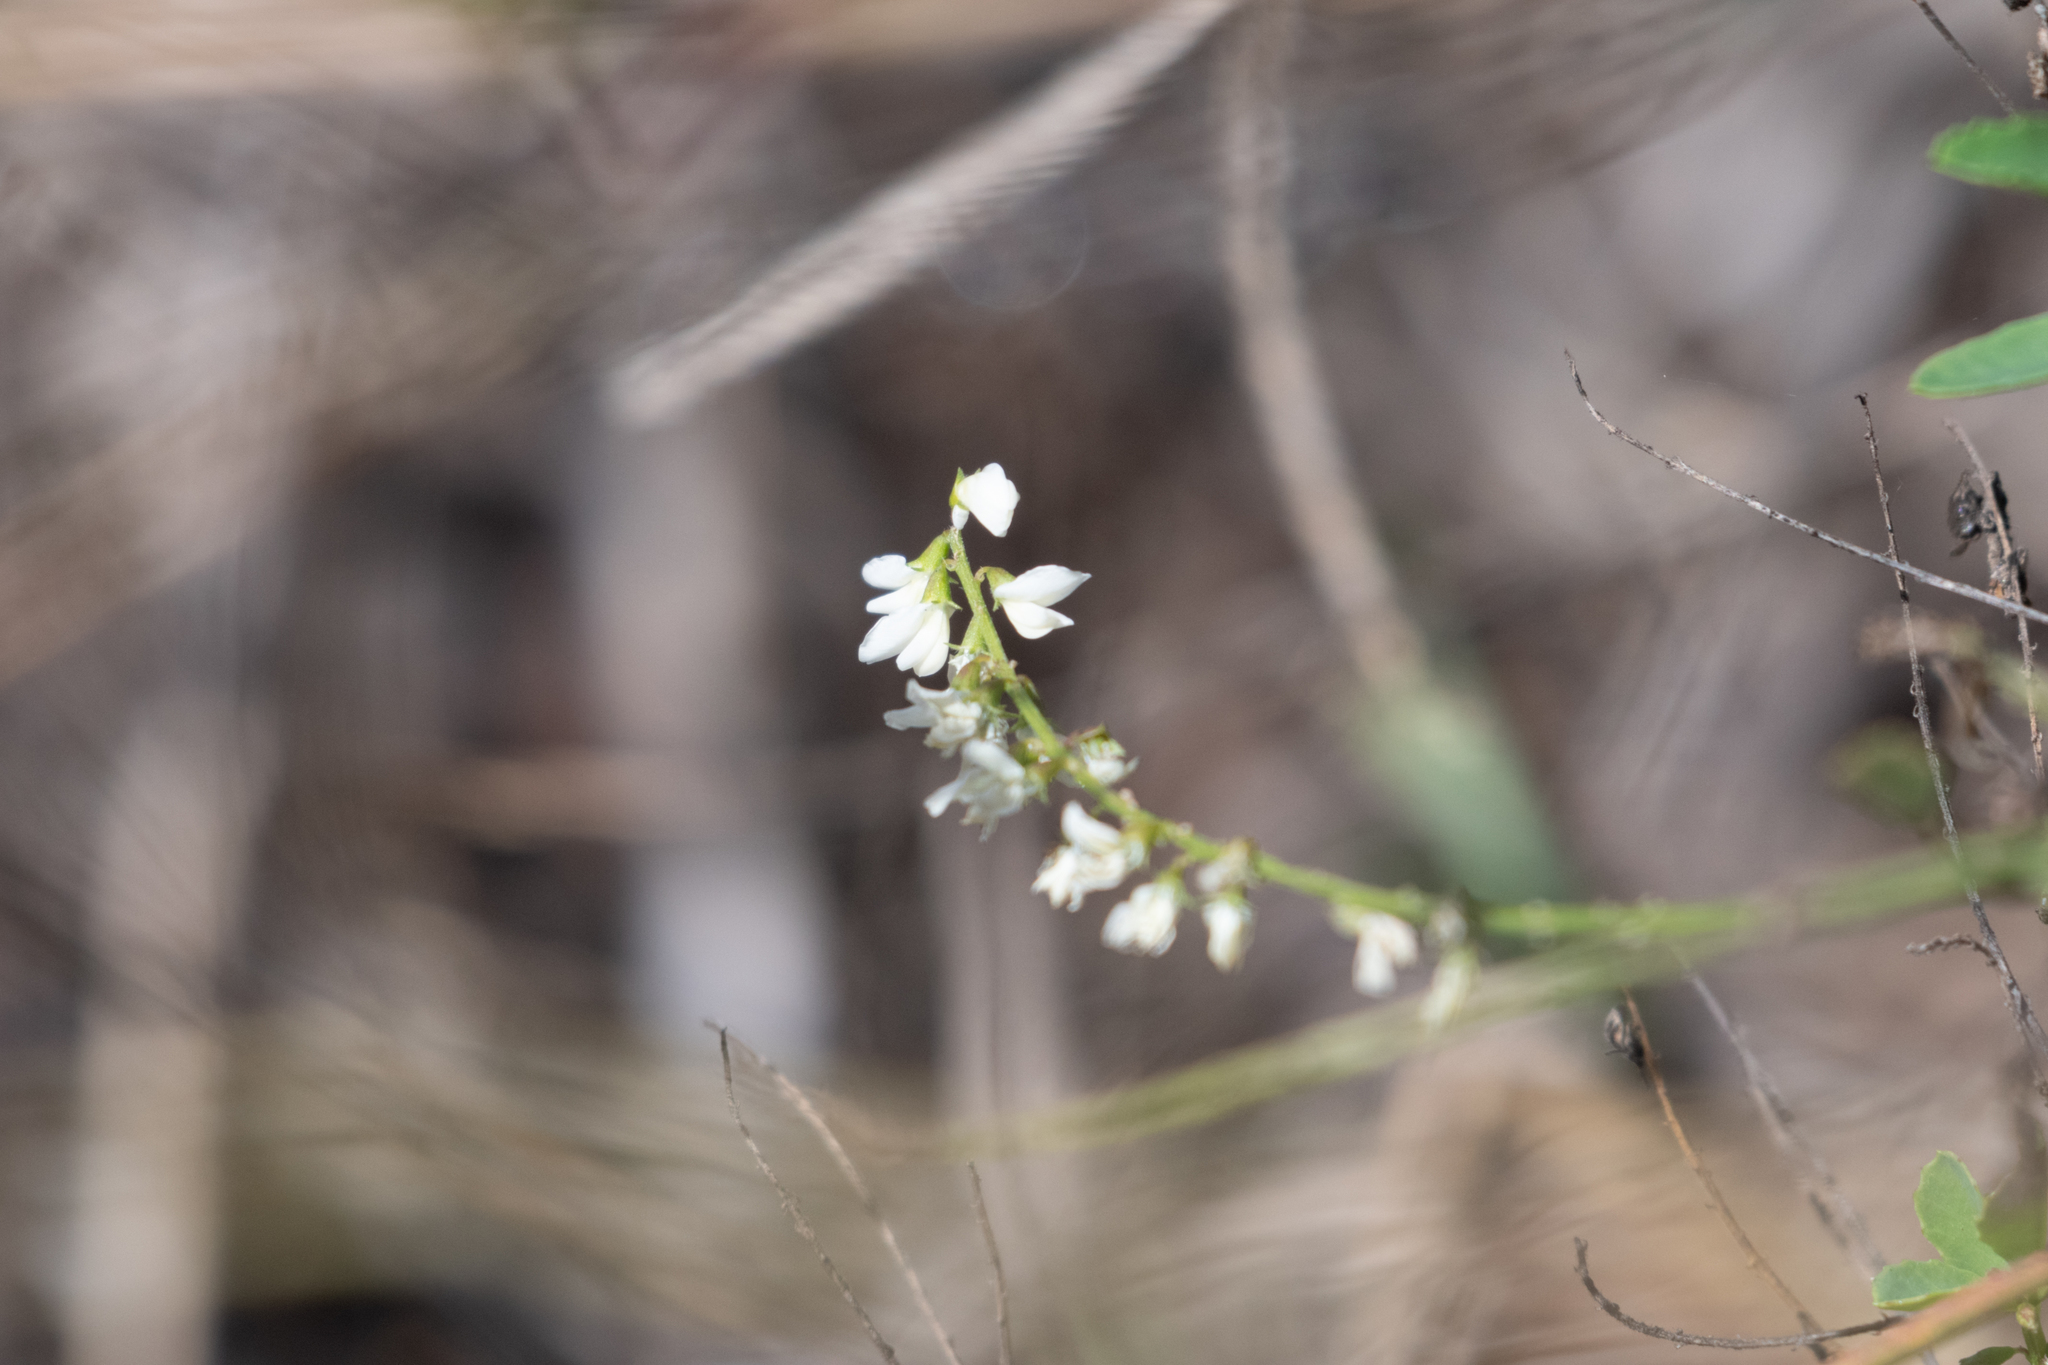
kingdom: Plantae
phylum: Tracheophyta
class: Magnoliopsida
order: Fabales
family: Fabaceae
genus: Melilotus
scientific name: Melilotus albus
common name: White melilot
